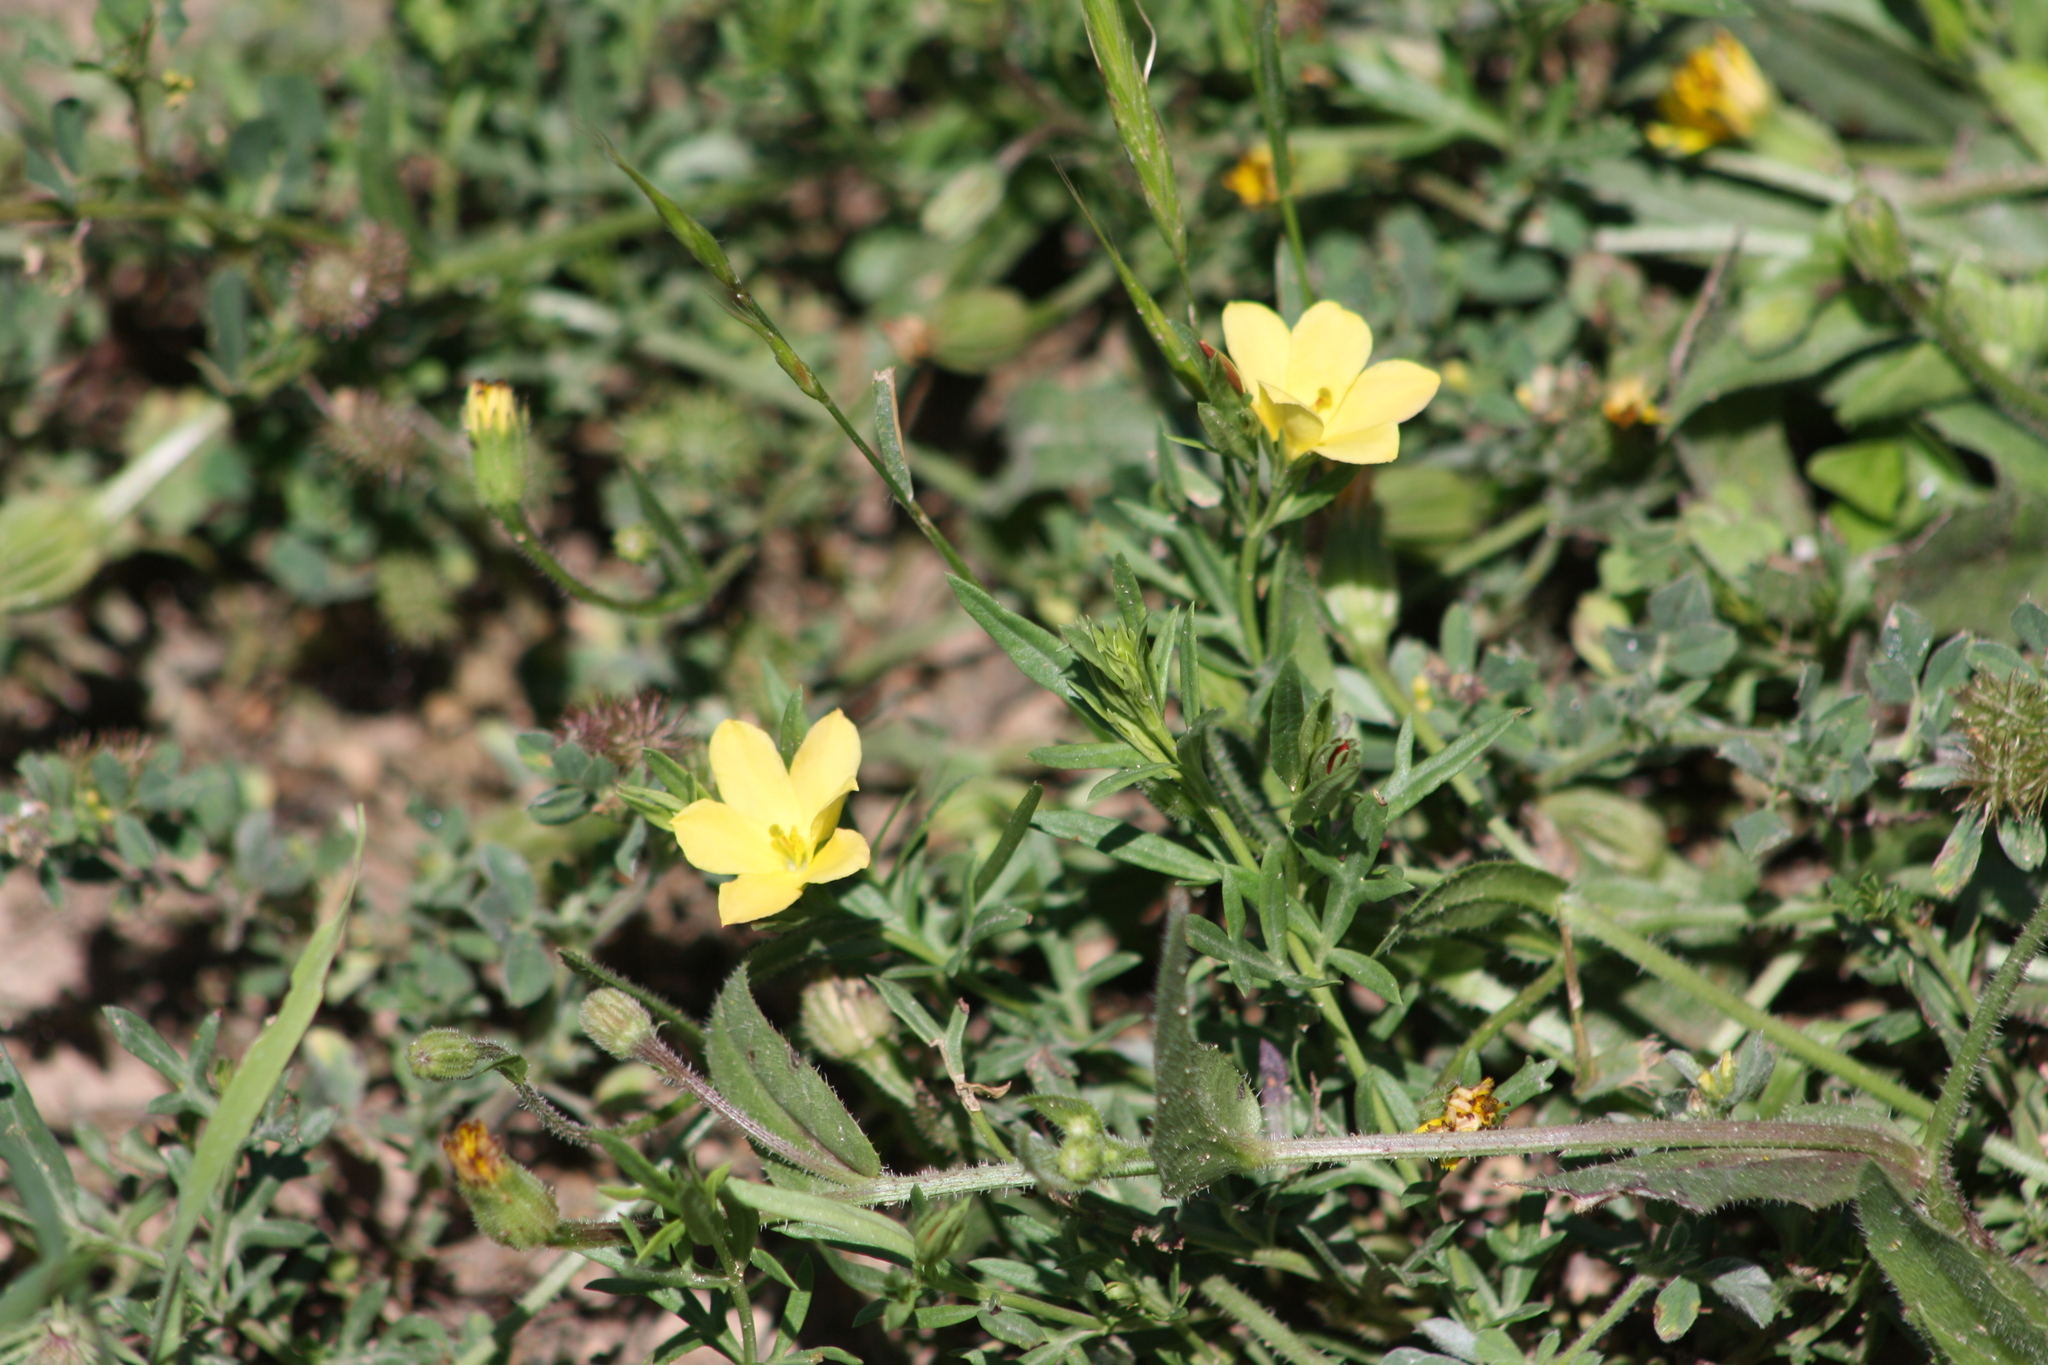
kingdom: Plantae
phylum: Tracheophyta
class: Magnoliopsida
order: Lamiales
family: Oleaceae
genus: Menodora
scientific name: Menodora heterophylla
